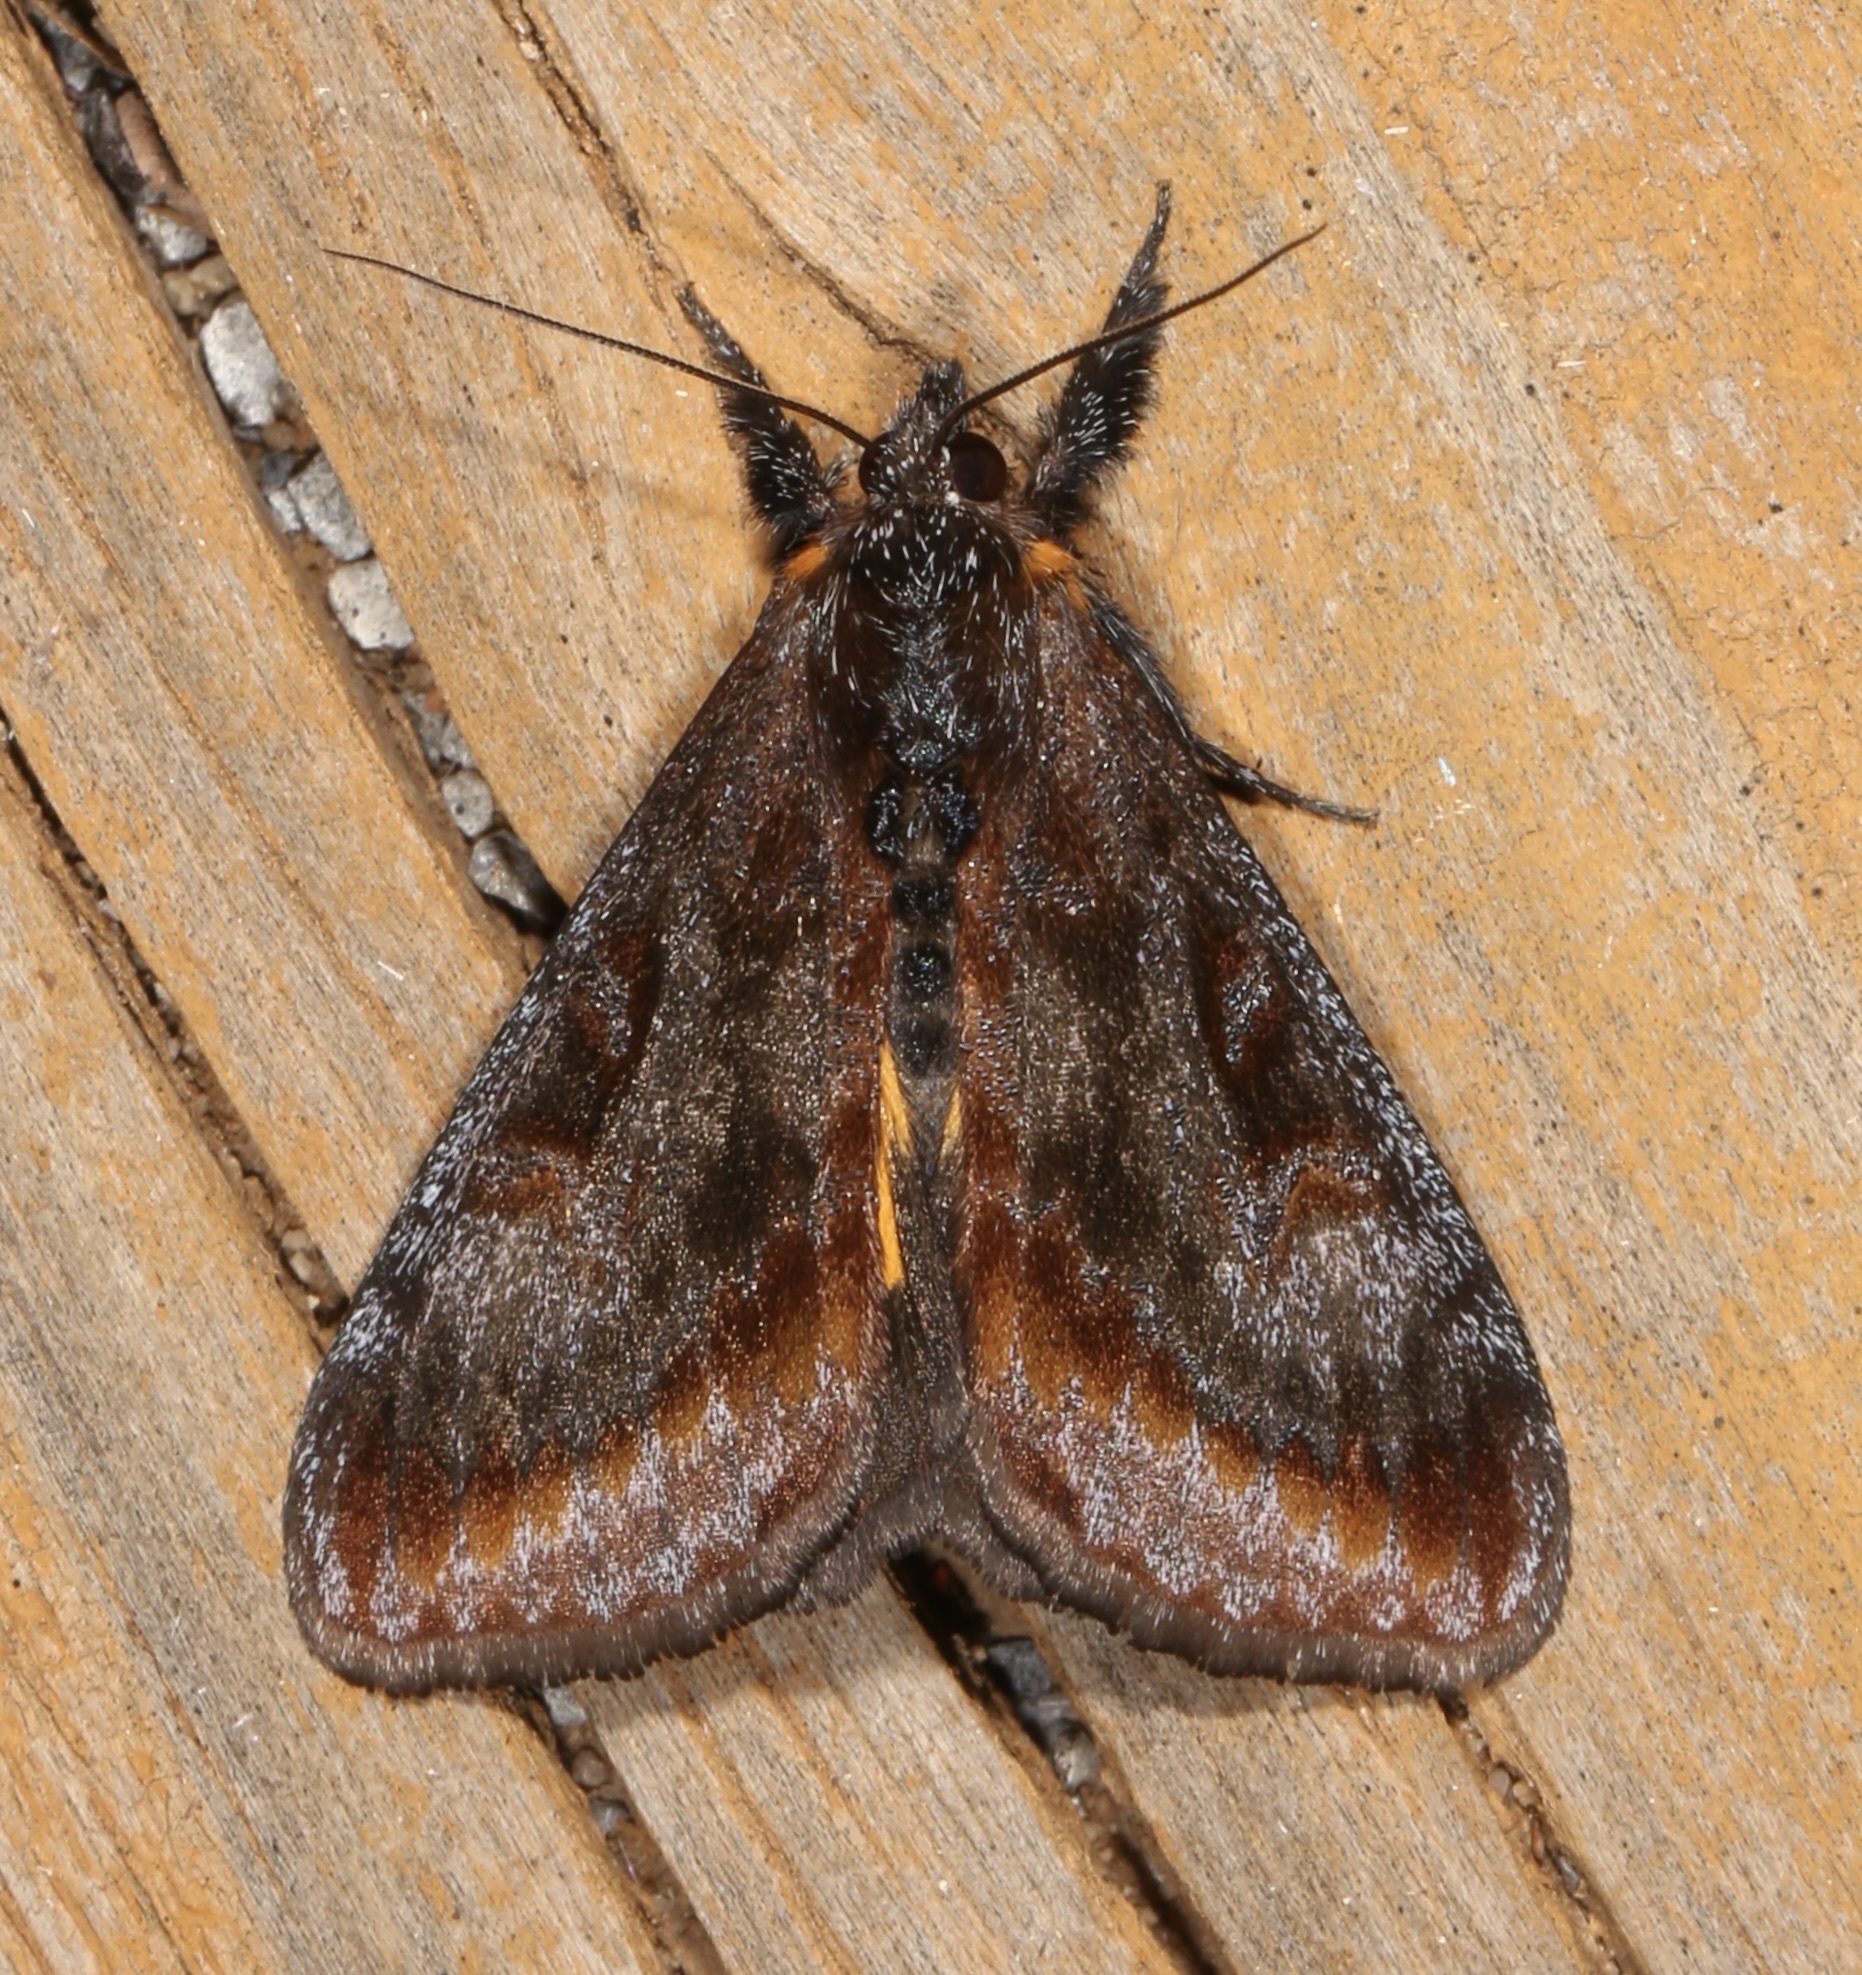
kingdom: Animalia
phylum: Arthropoda
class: Insecta
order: Lepidoptera
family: Noctuidae
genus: Gerra
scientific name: Gerra sevorsa
